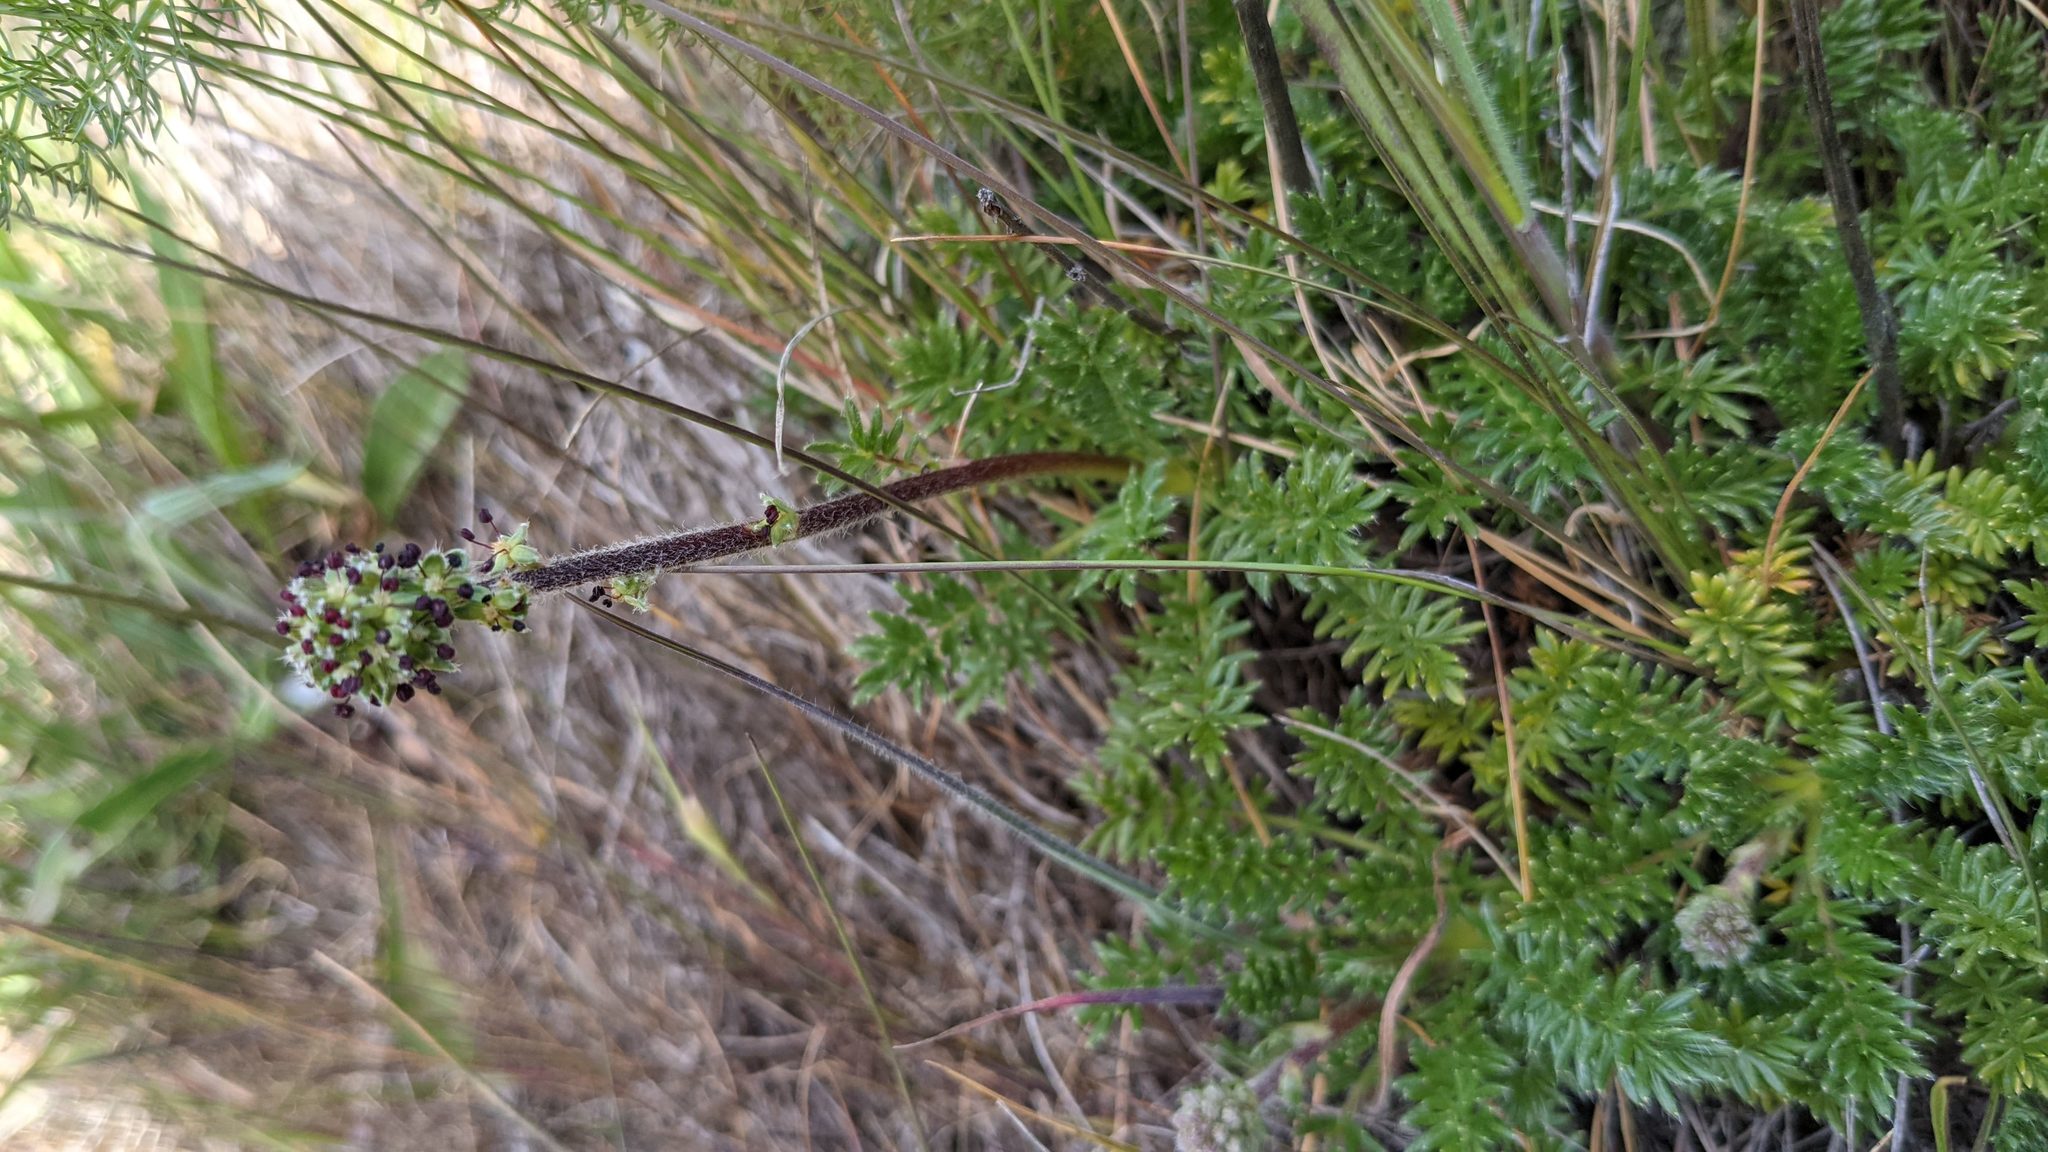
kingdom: Plantae
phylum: Tracheophyta
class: Magnoliopsida
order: Rosales
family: Rosaceae
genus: Acaena
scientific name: Acaena pinnatifida
